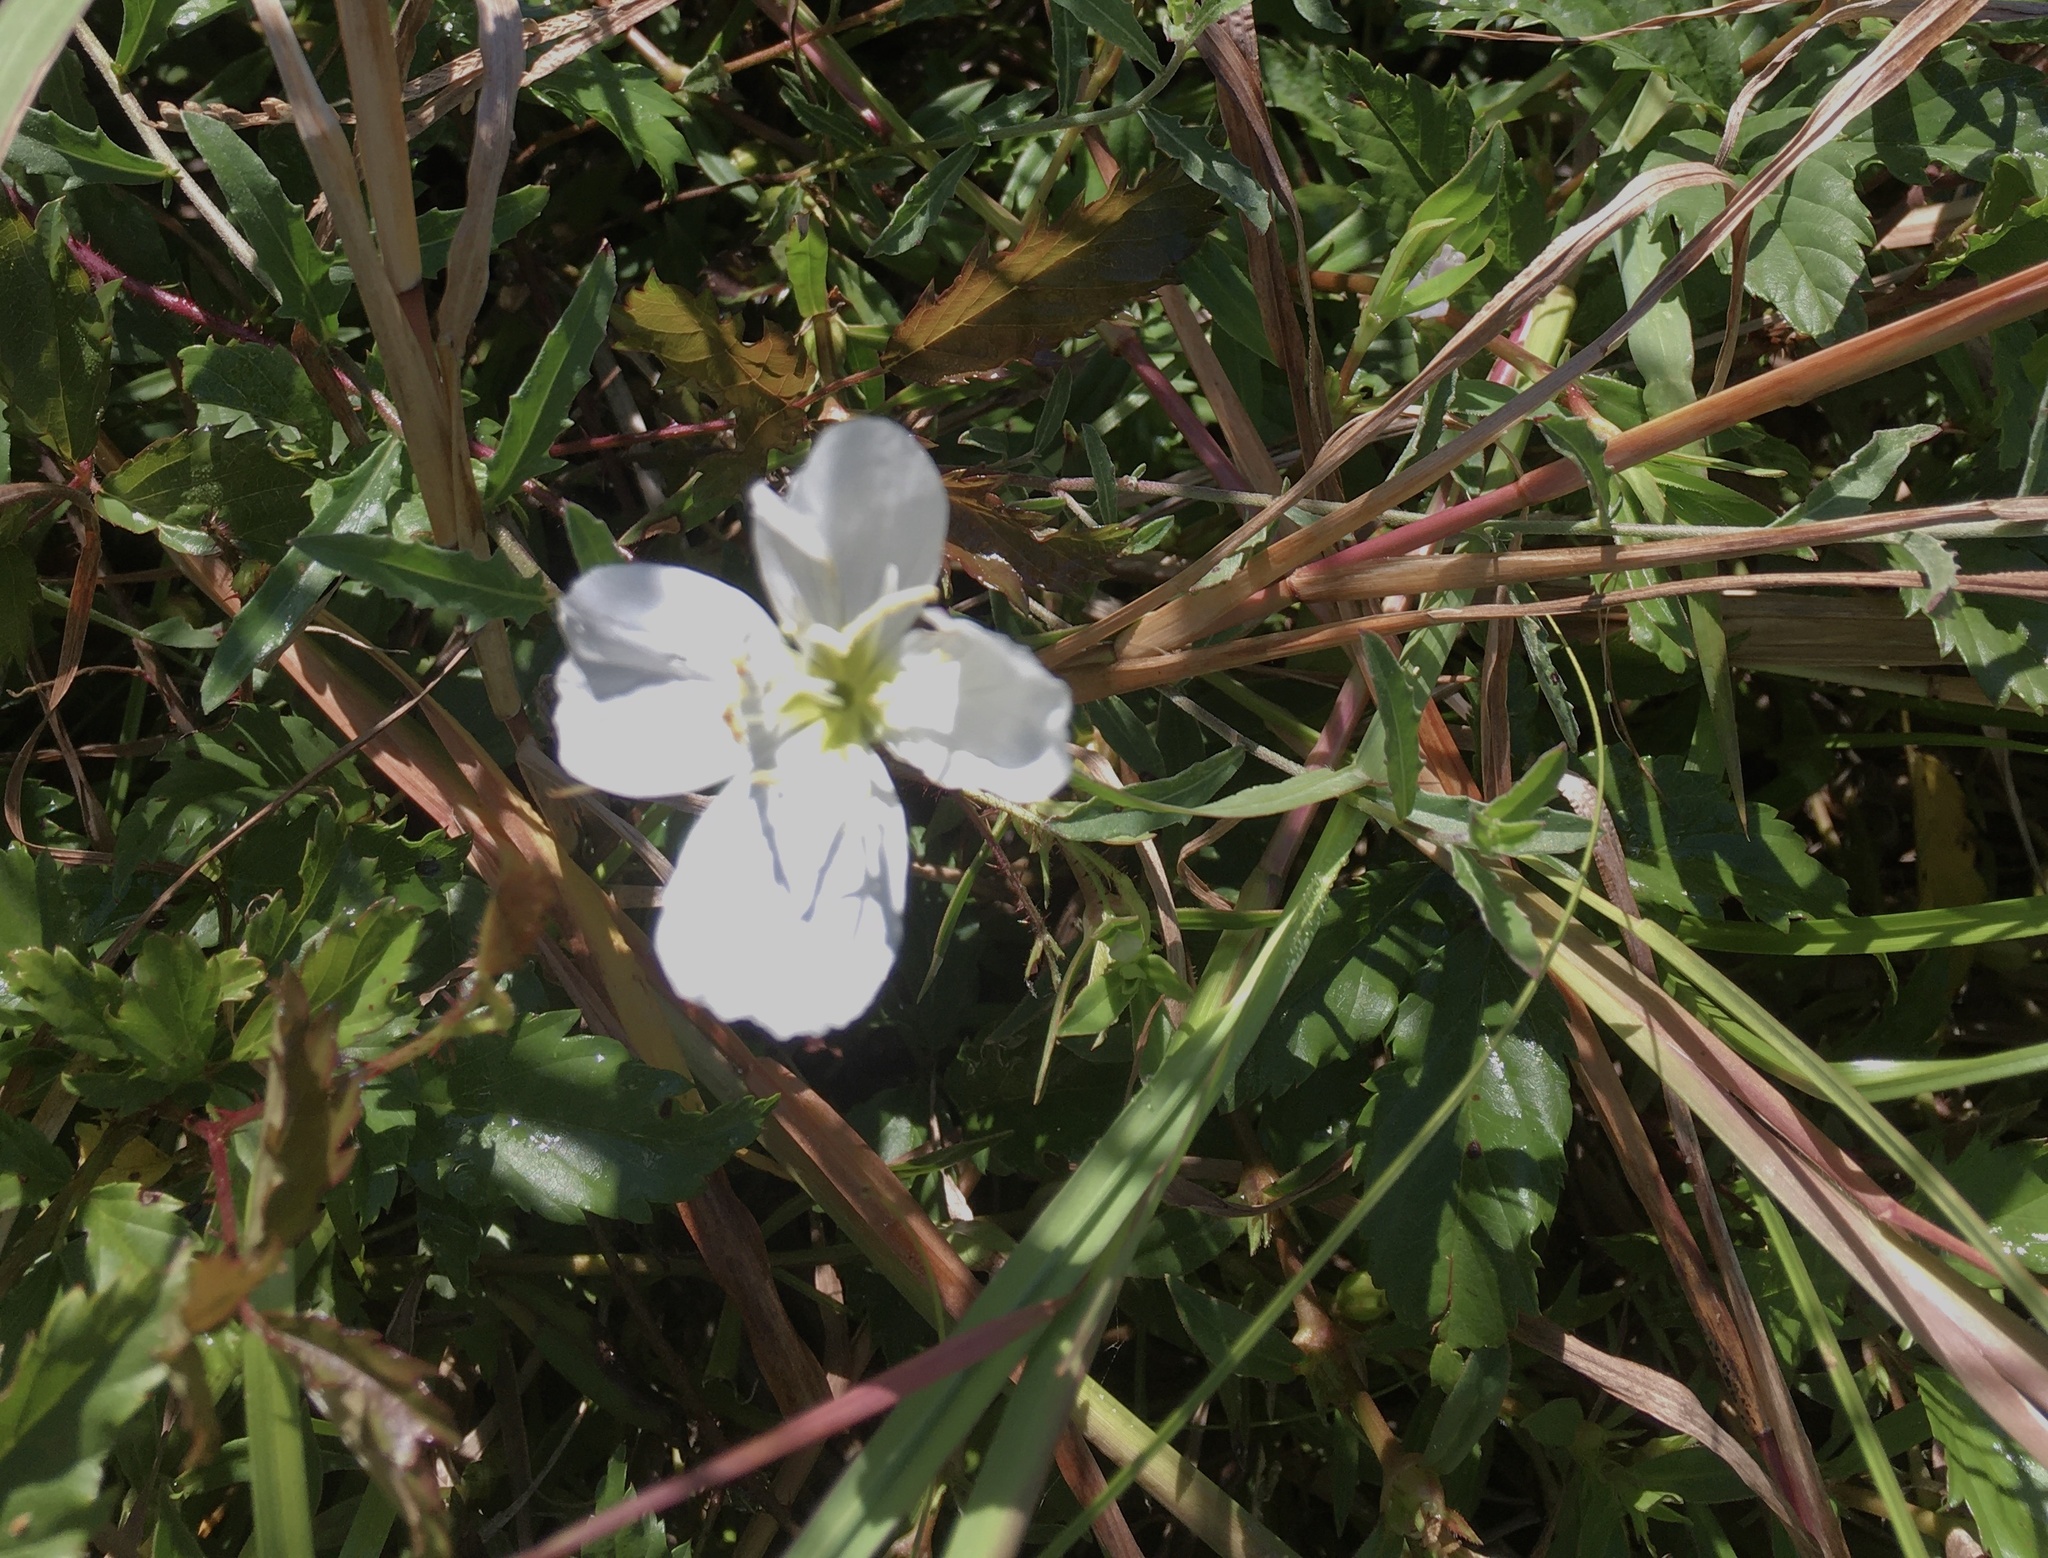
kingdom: Plantae
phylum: Tracheophyta
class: Magnoliopsida
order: Myrtales
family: Onagraceae
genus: Oenothera
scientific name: Oenothera speciosa
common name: White evening-primrose
